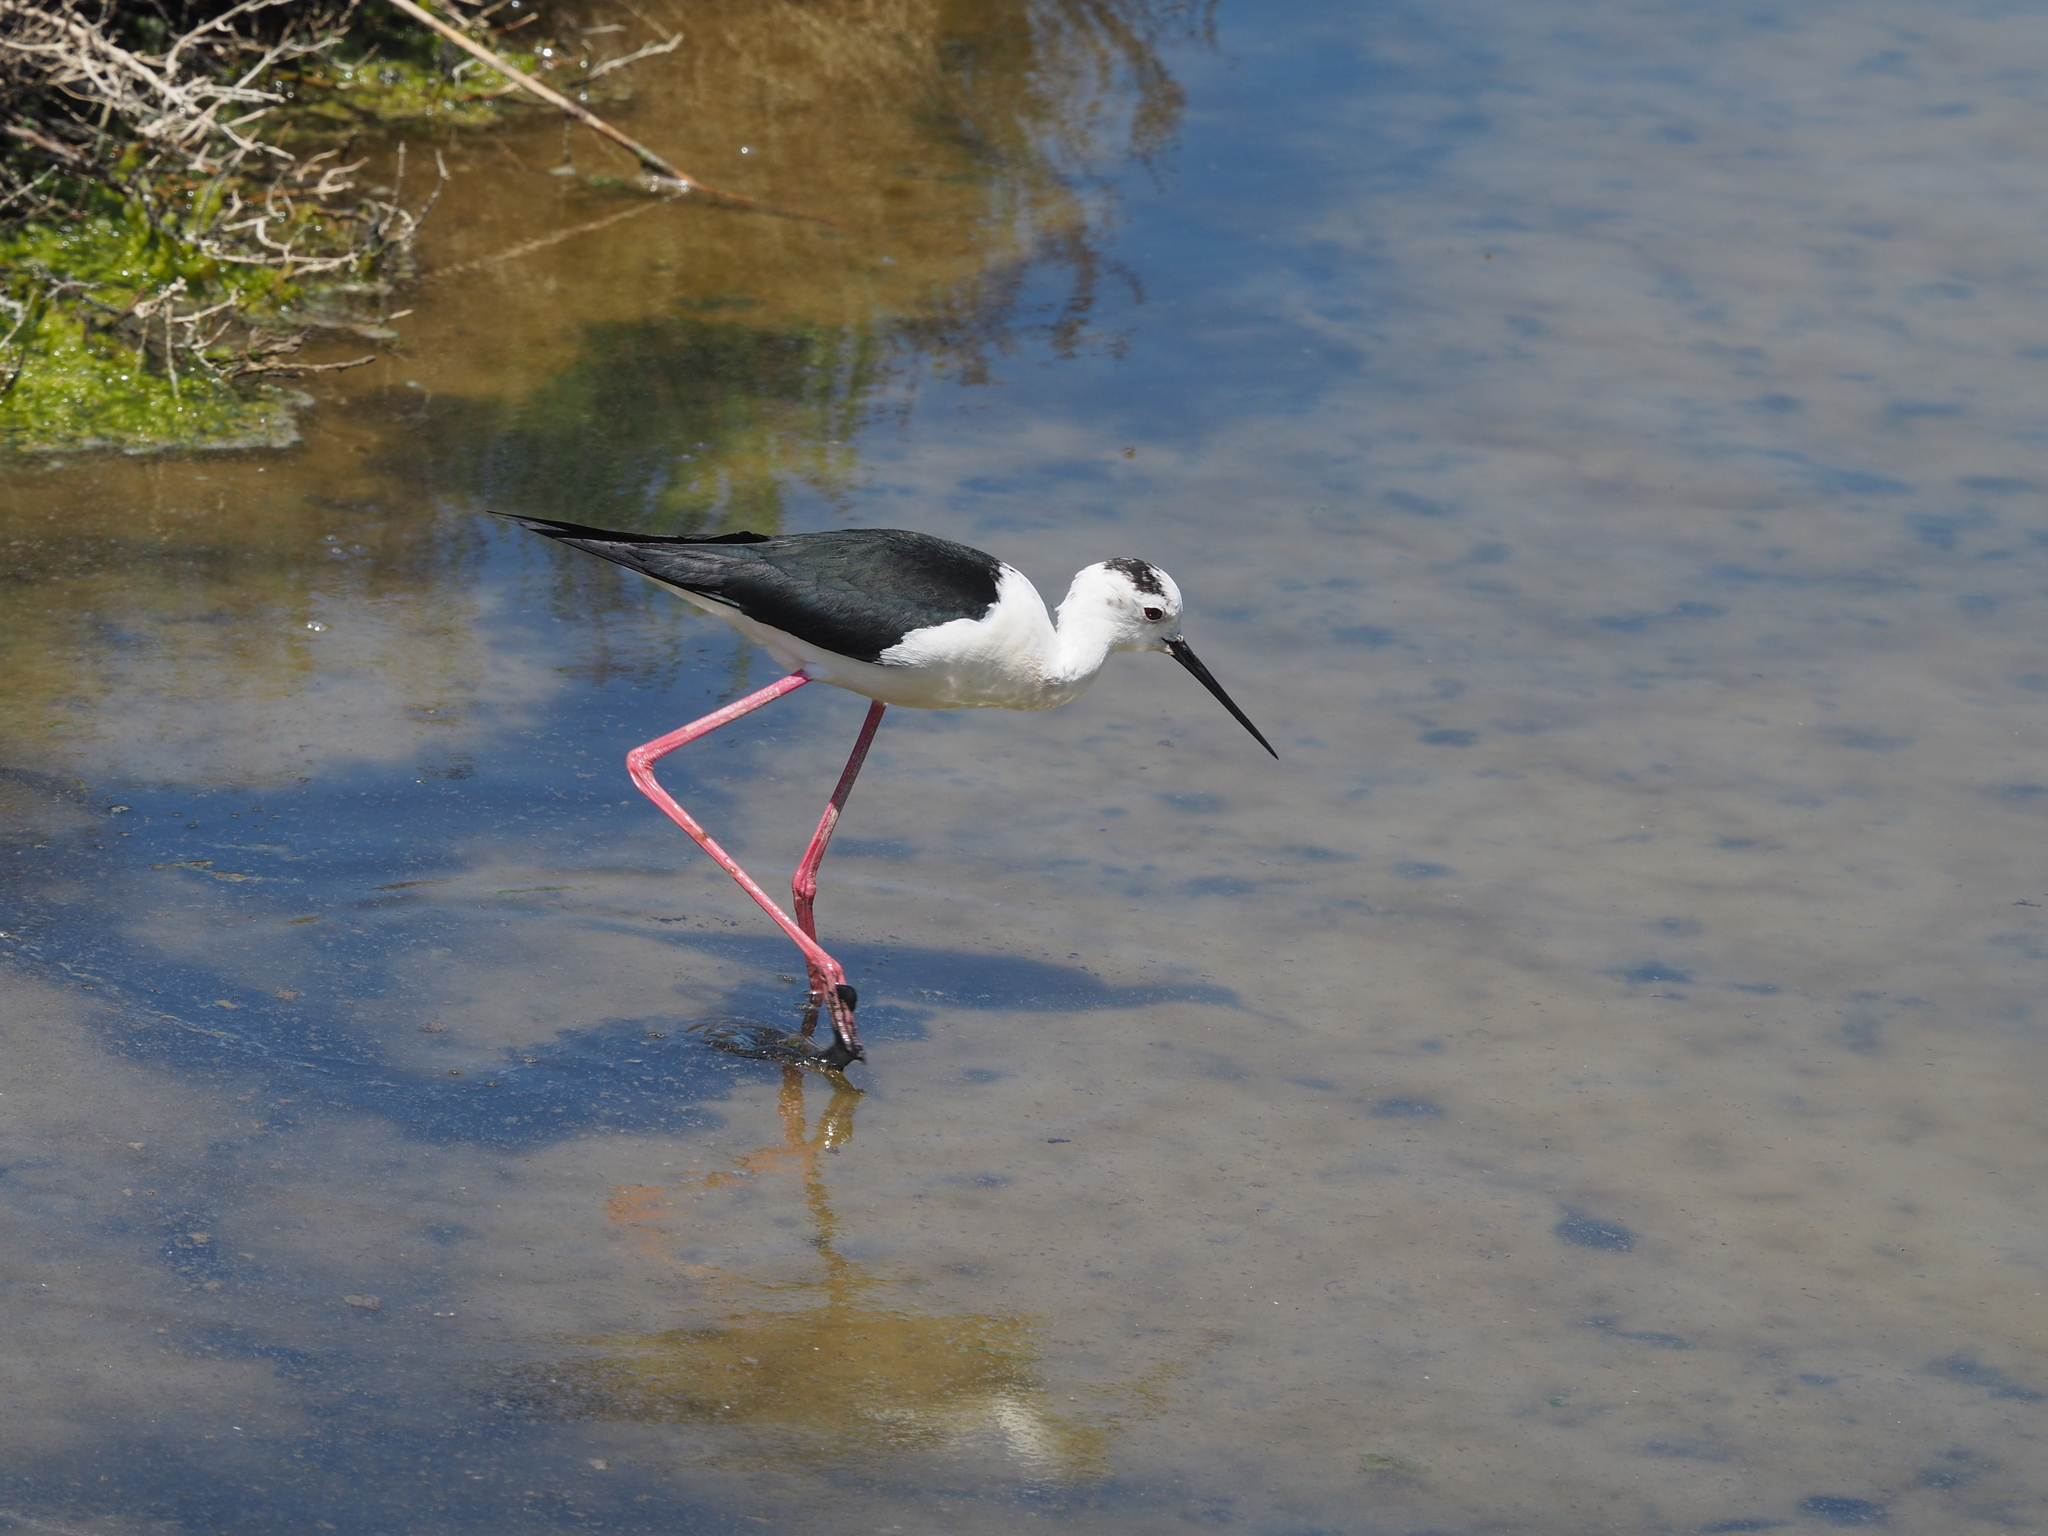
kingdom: Animalia
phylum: Chordata
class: Aves
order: Charadriiformes
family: Recurvirostridae
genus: Himantopus
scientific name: Himantopus himantopus
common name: Black-winged stilt
